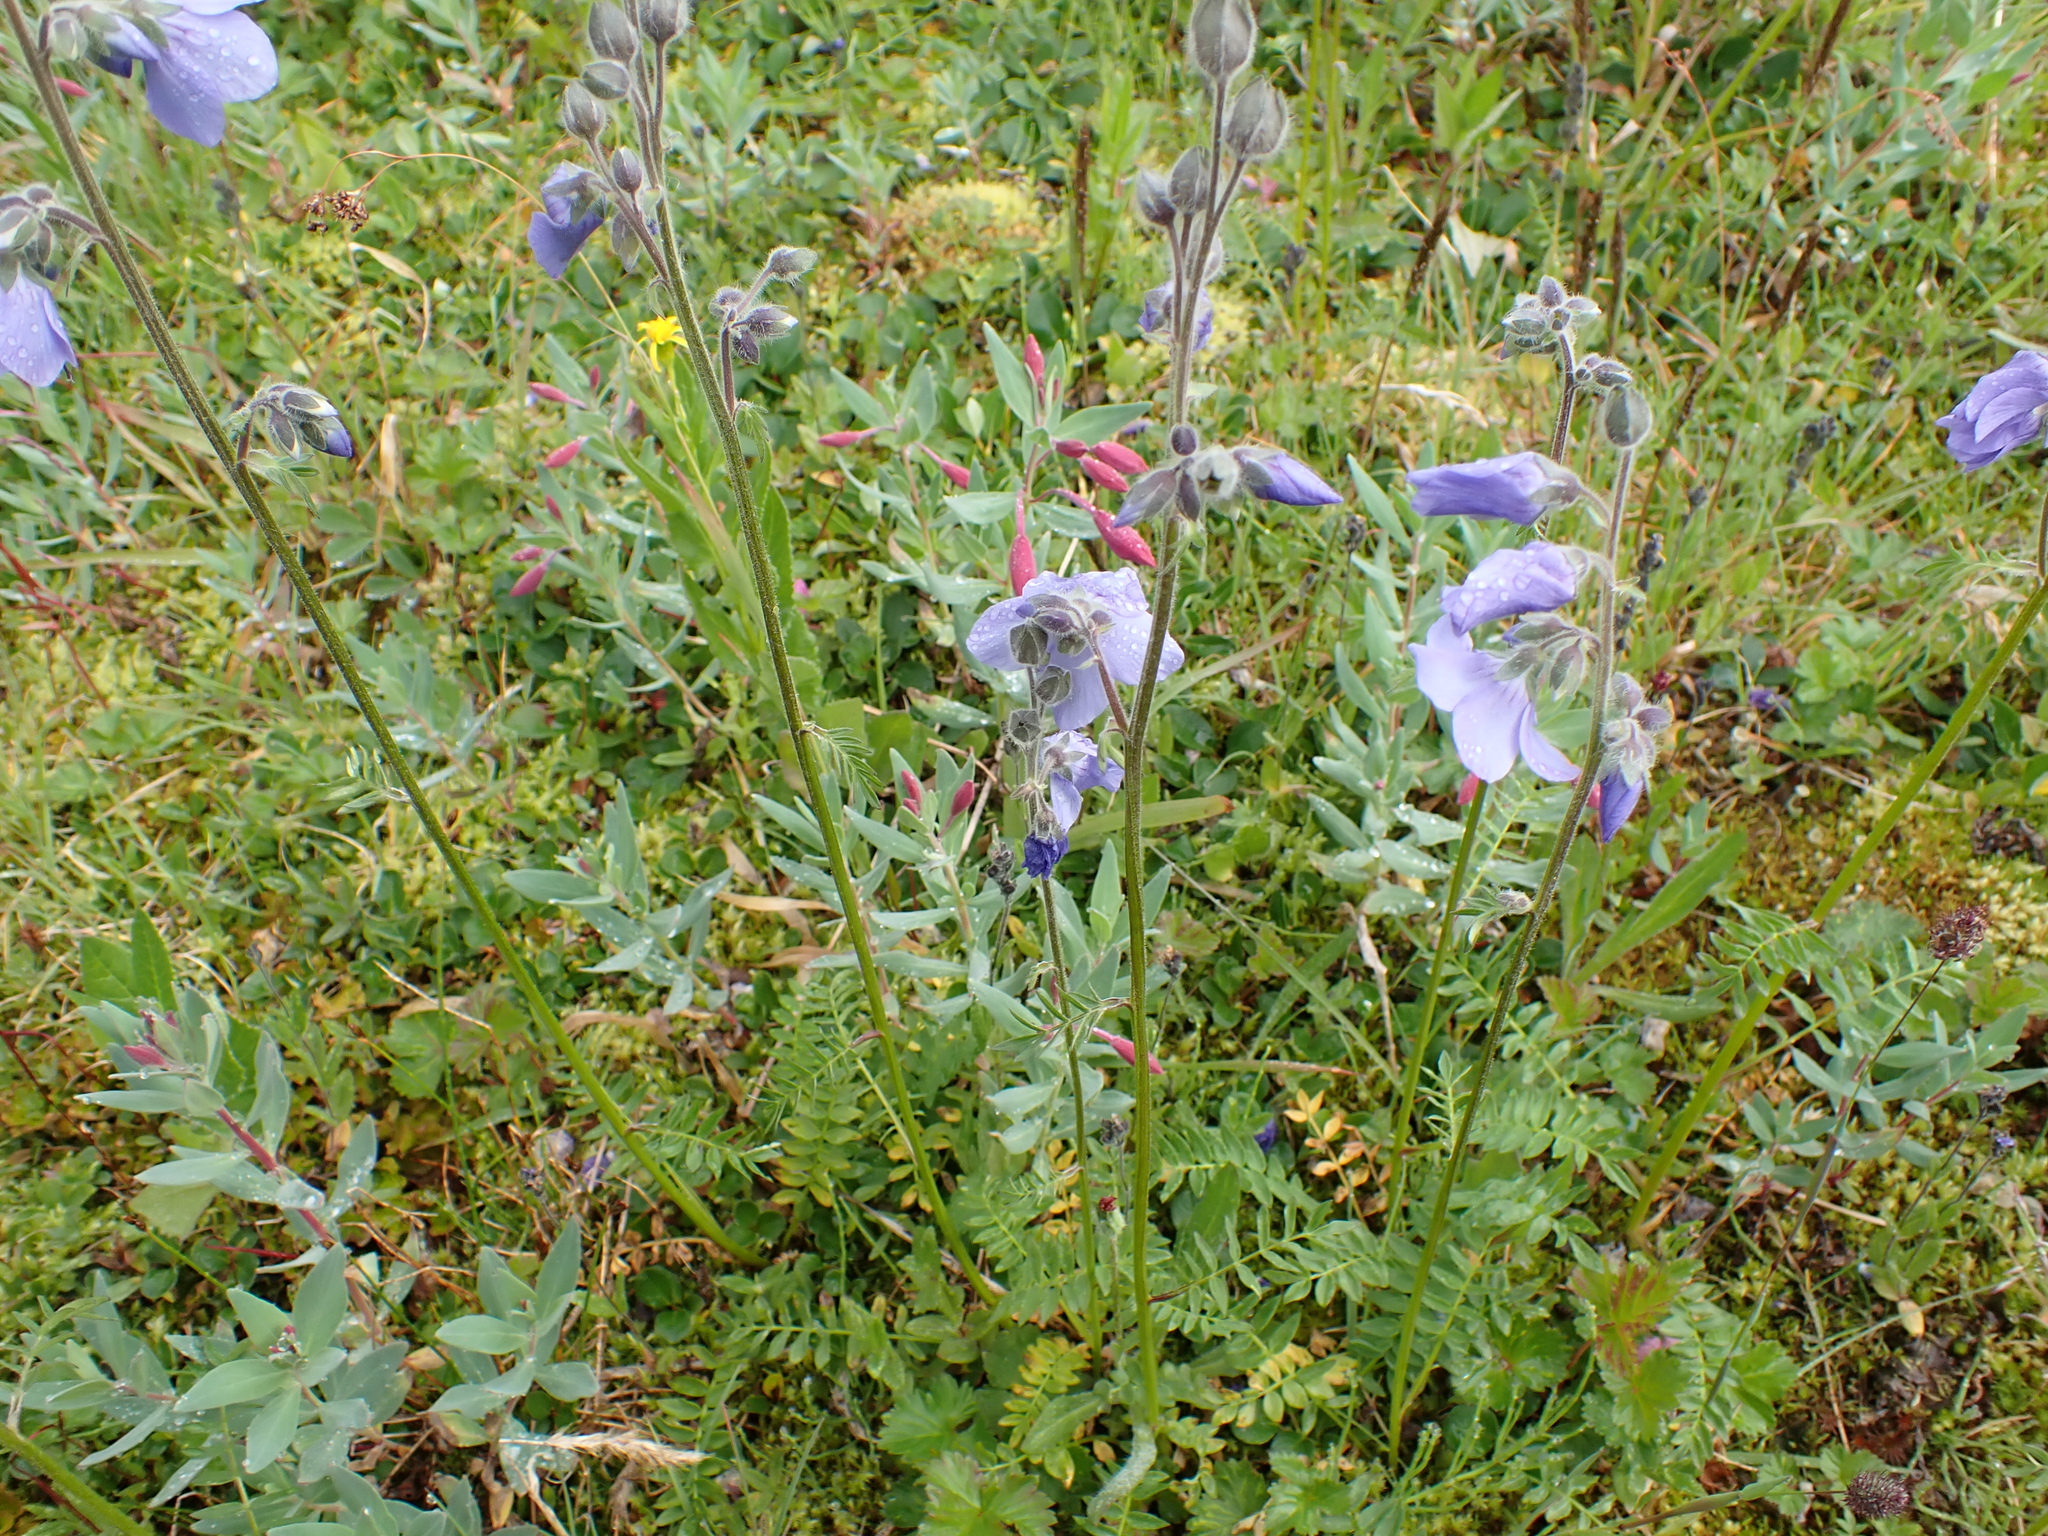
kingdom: Plantae
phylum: Tracheophyta
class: Magnoliopsida
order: Ericales
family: Polemoniaceae
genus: Polemonium
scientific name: Polemonium acutiflorum
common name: Tall jacob's-ladder
